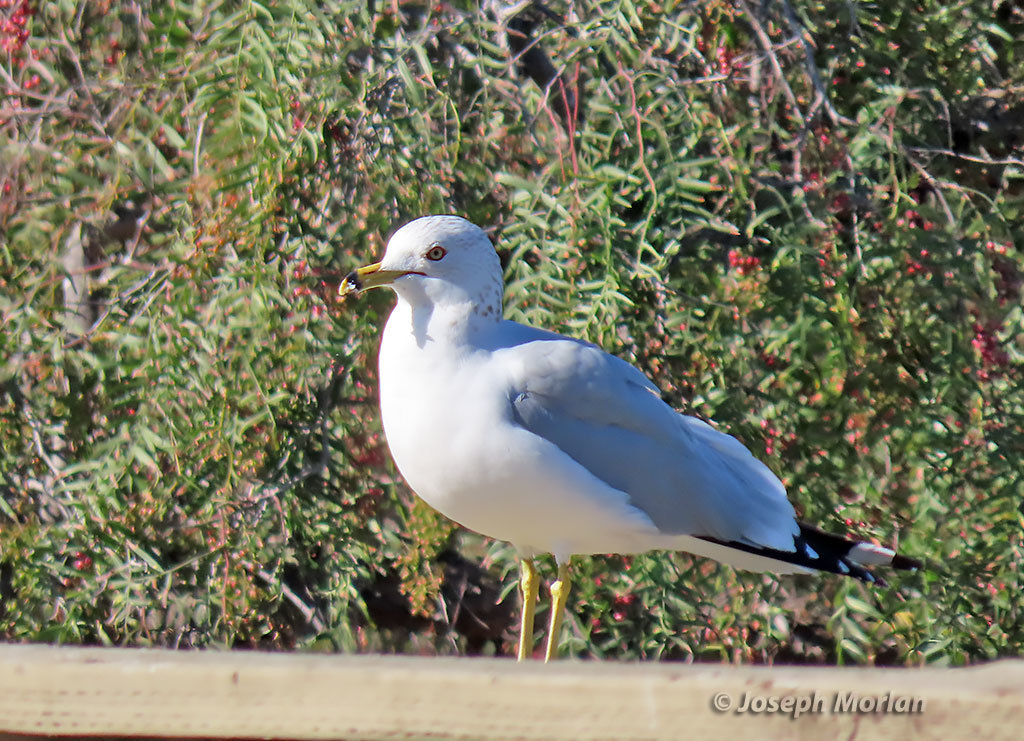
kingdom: Animalia
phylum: Chordata
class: Aves
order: Charadriiformes
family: Laridae
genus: Larus
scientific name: Larus delawarensis
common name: Ring-billed gull
